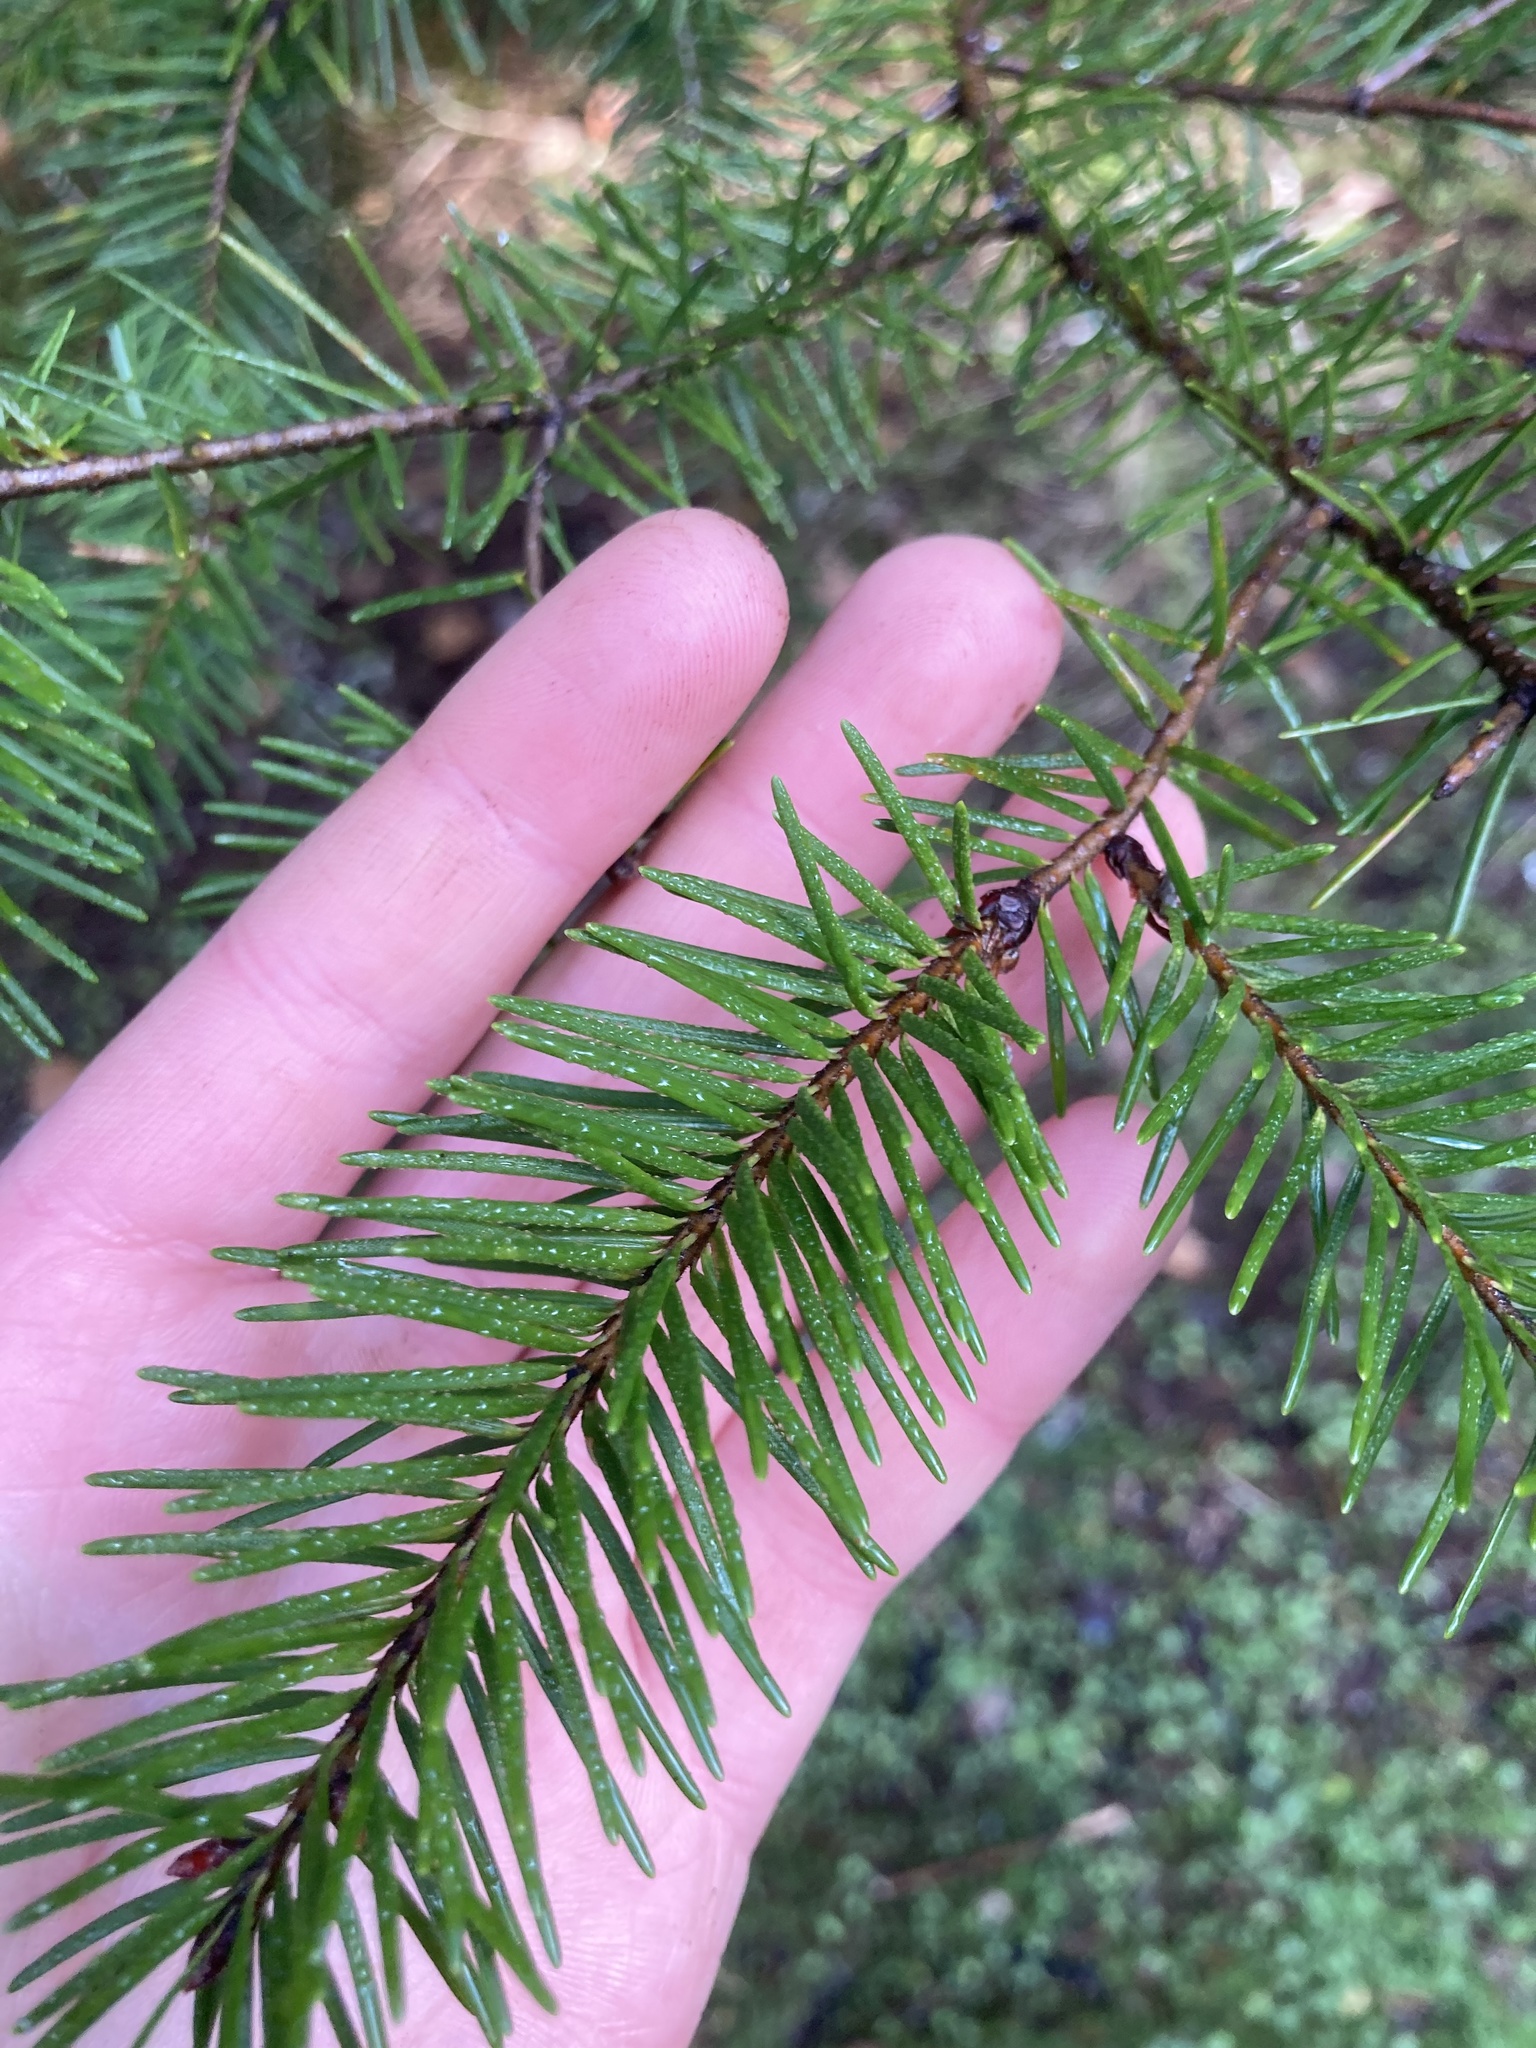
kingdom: Plantae
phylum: Tracheophyta
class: Pinopsida
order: Pinales
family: Pinaceae
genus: Pseudotsuga
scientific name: Pseudotsuga menziesii
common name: Douglas fir
